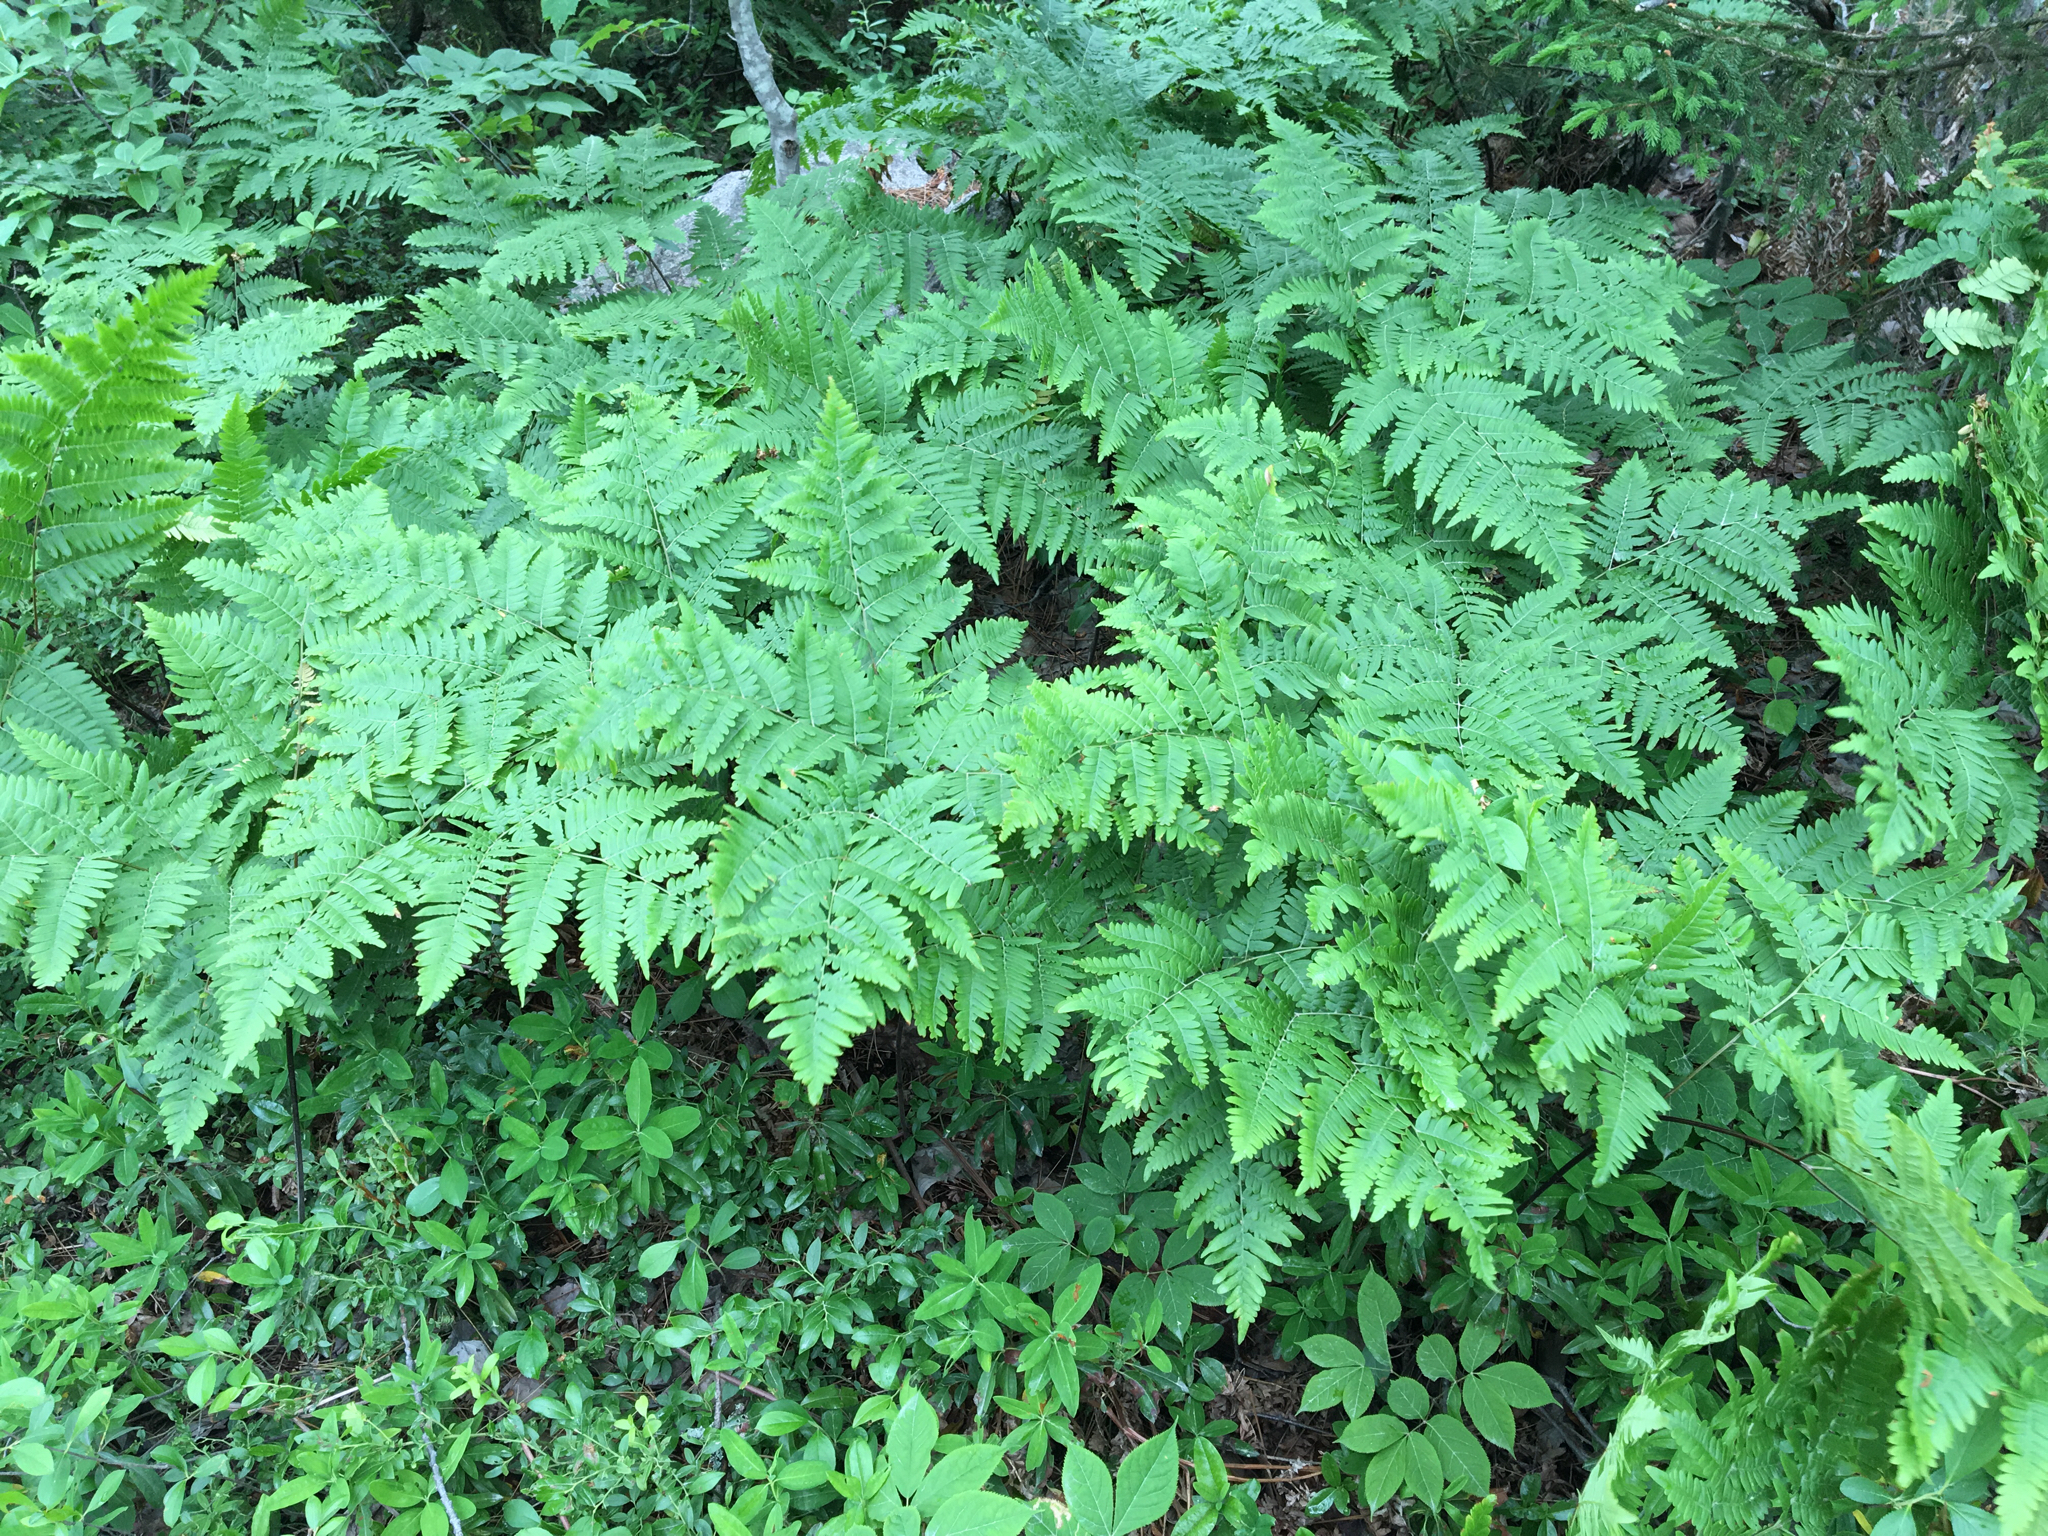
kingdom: Plantae
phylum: Tracheophyta
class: Polypodiopsida
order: Polypodiales
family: Dennstaedtiaceae
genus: Pteridium
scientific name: Pteridium aquilinum
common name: Bracken
